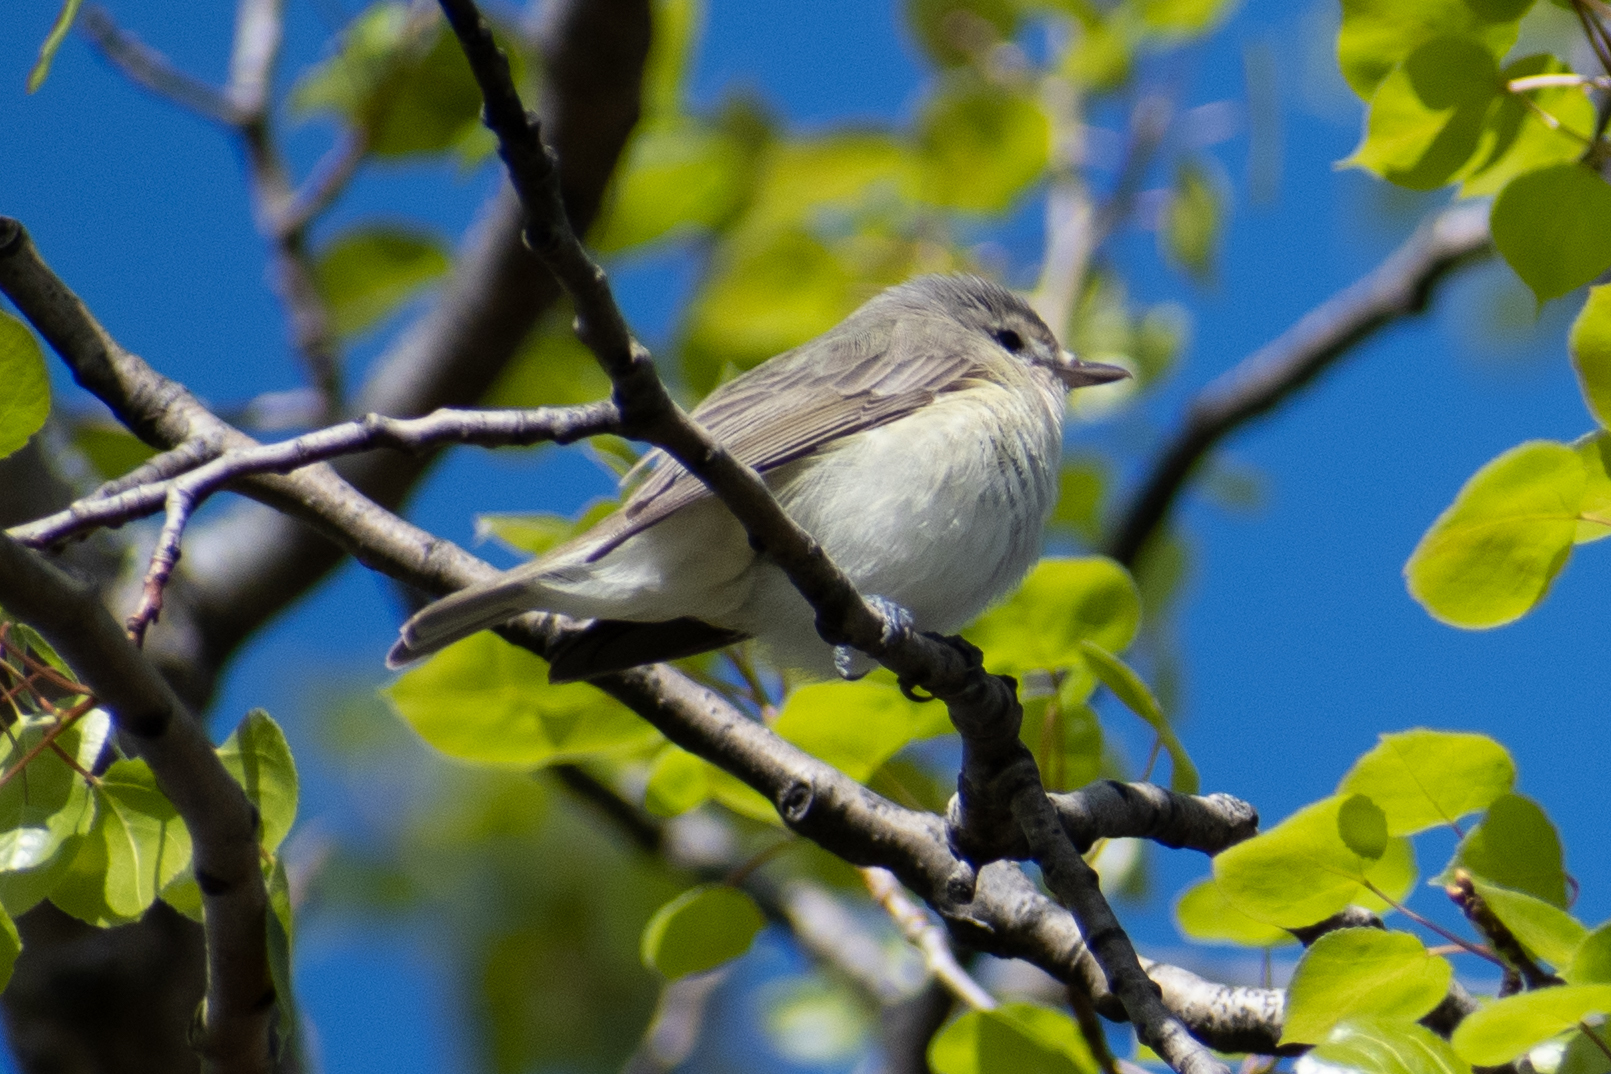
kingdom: Animalia
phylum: Chordata
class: Aves
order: Passeriformes
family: Vireonidae
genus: Vireo
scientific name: Vireo gilvus
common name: Warbling vireo
